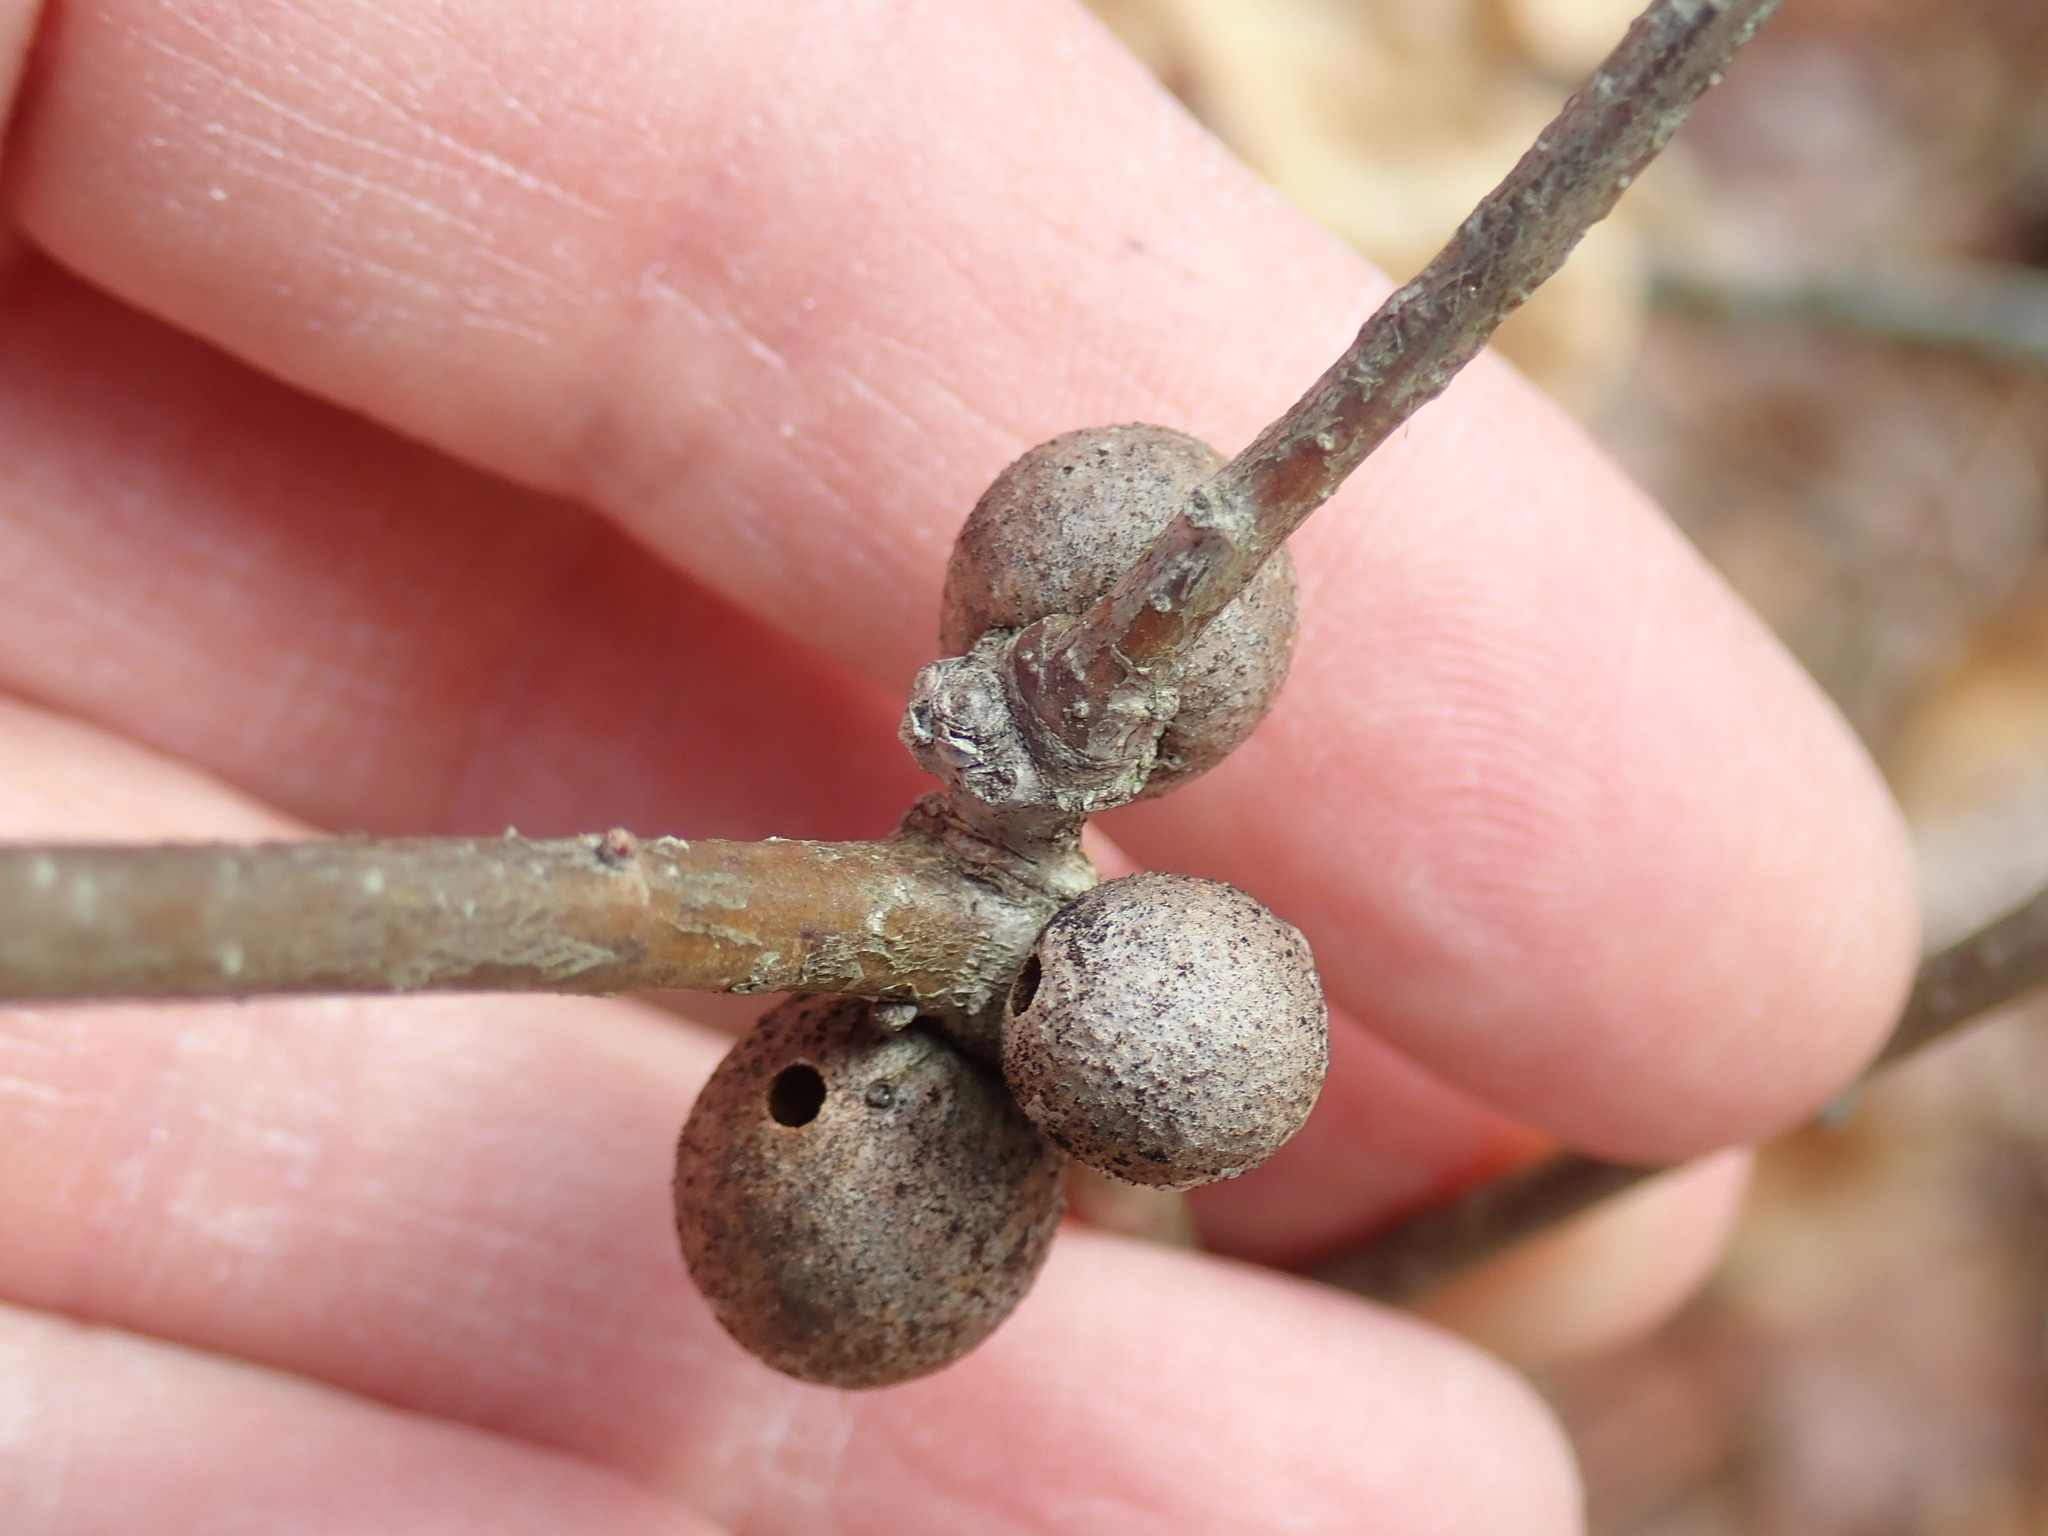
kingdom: Animalia
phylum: Arthropoda
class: Insecta
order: Hymenoptera
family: Cynipidae
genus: Disholcaspis
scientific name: Disholcaspis quercusglobulus
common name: Round bullet gall wasp
